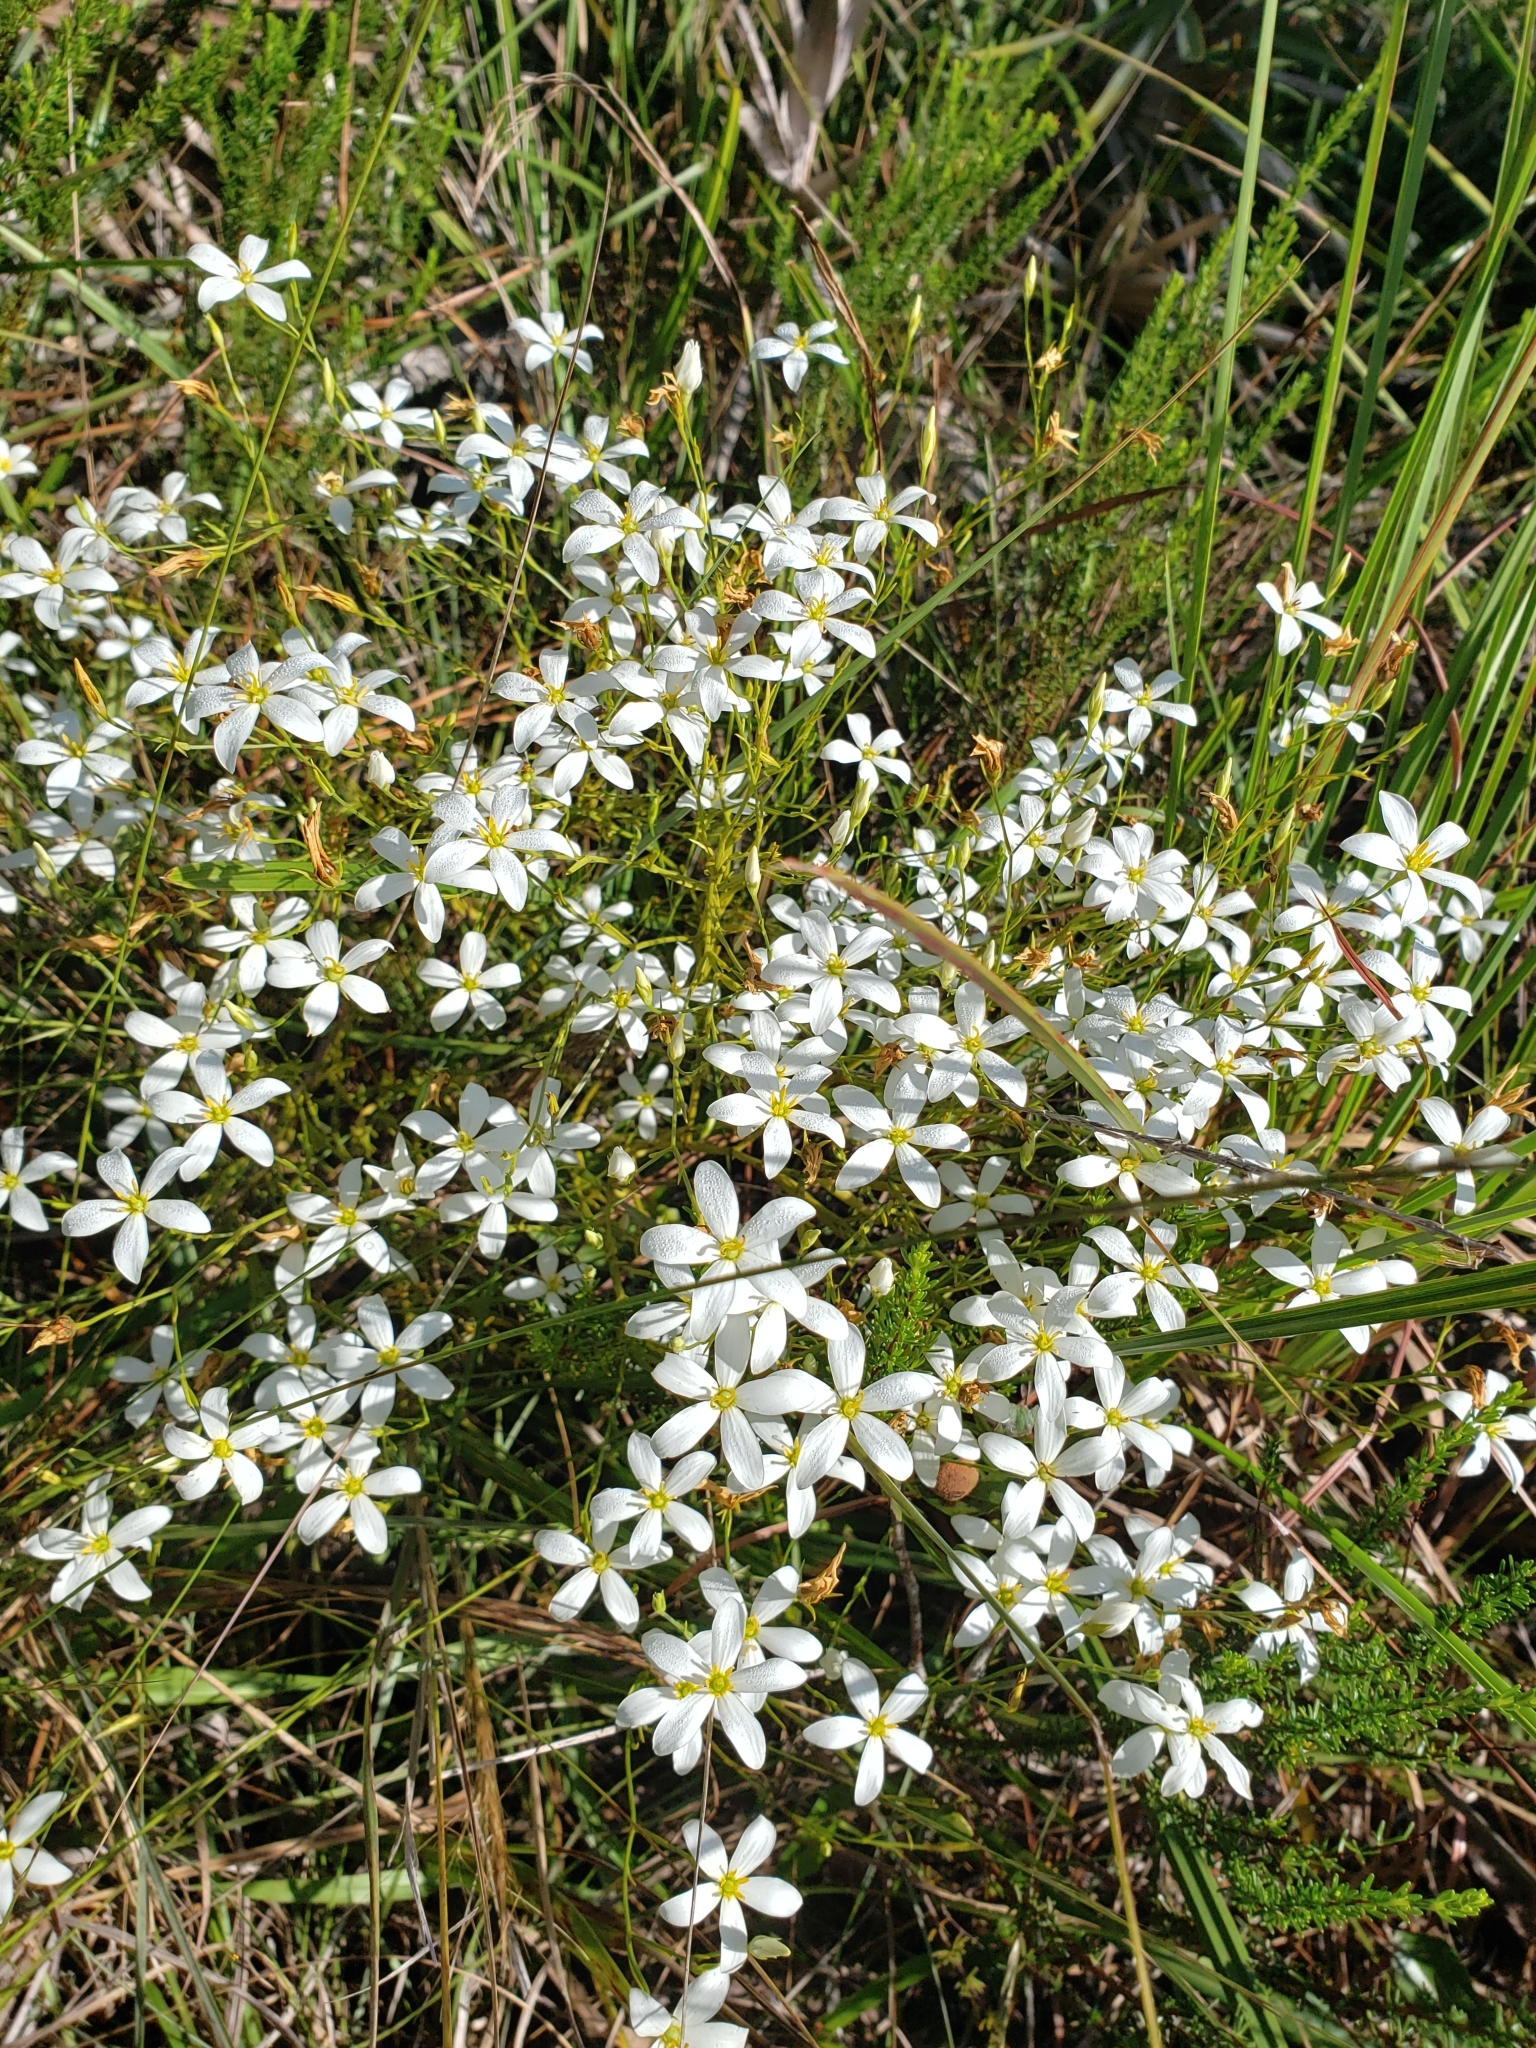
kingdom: Plantae
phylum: Tracheophyta
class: Magnoliopsida
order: Gentianales
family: Gentianaceae
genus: Sabatia
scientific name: Sabatia brevifolia
